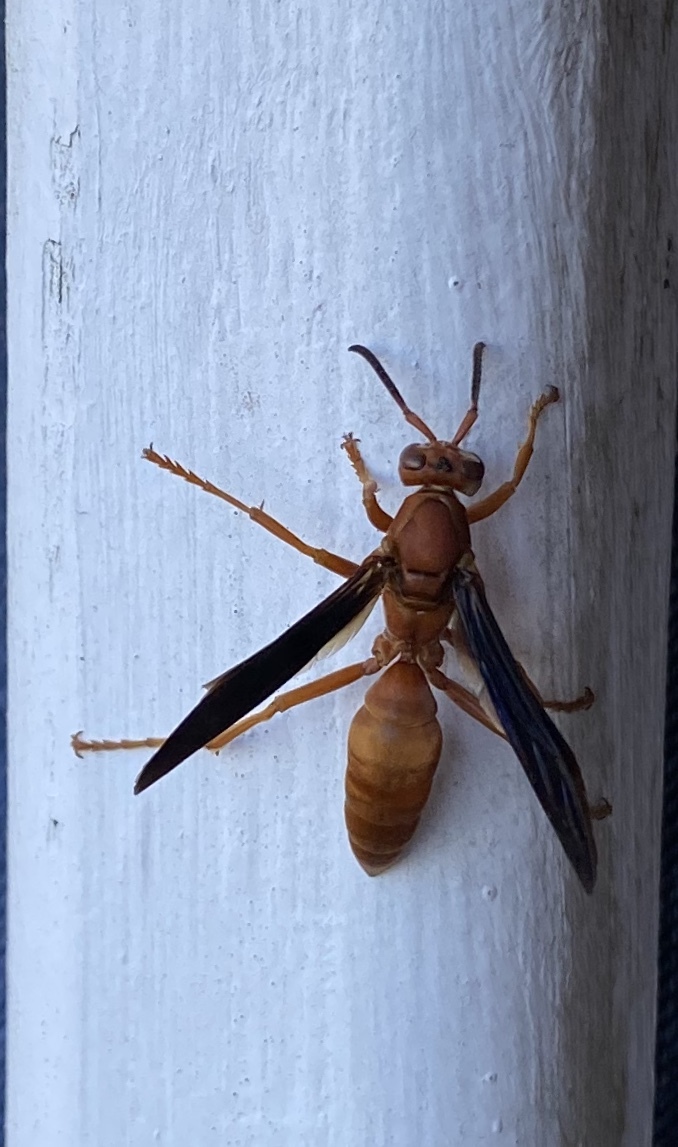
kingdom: Animalia
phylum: Arthropoda
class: Insecta
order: Hymenoptera
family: Eumenidae
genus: Polistes
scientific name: Polistes carolina
